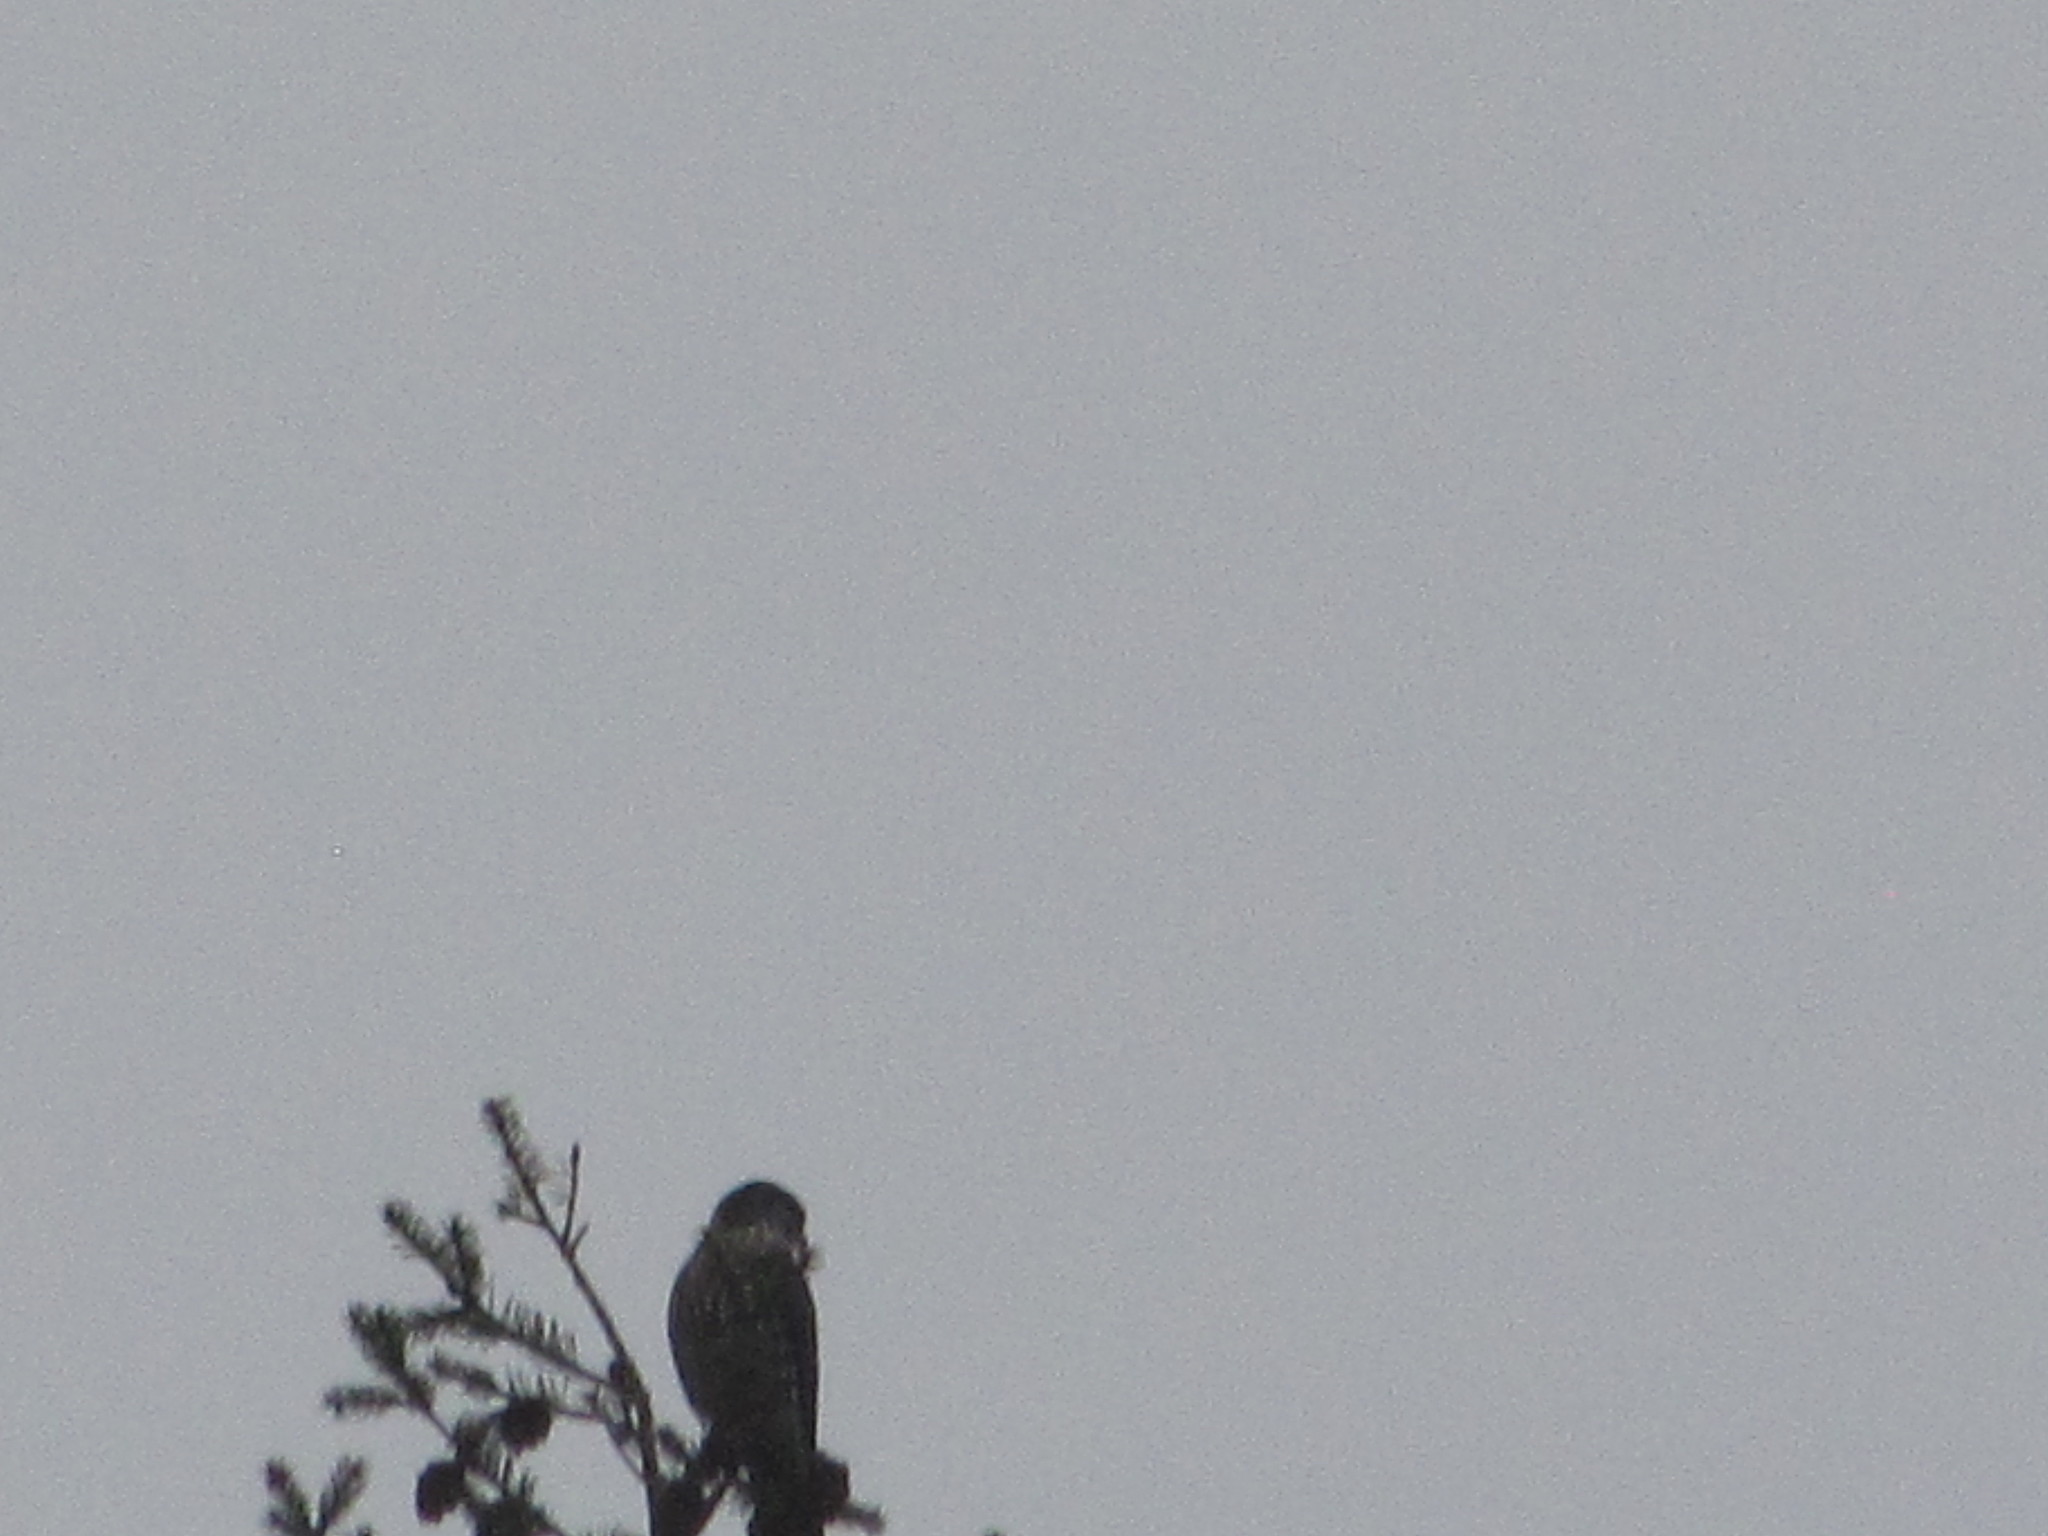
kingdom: Animalia
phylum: Chordata
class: Aves
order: Falconiformes
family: Falconidae
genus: Falco
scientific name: Falco columbarius
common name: Merlin
